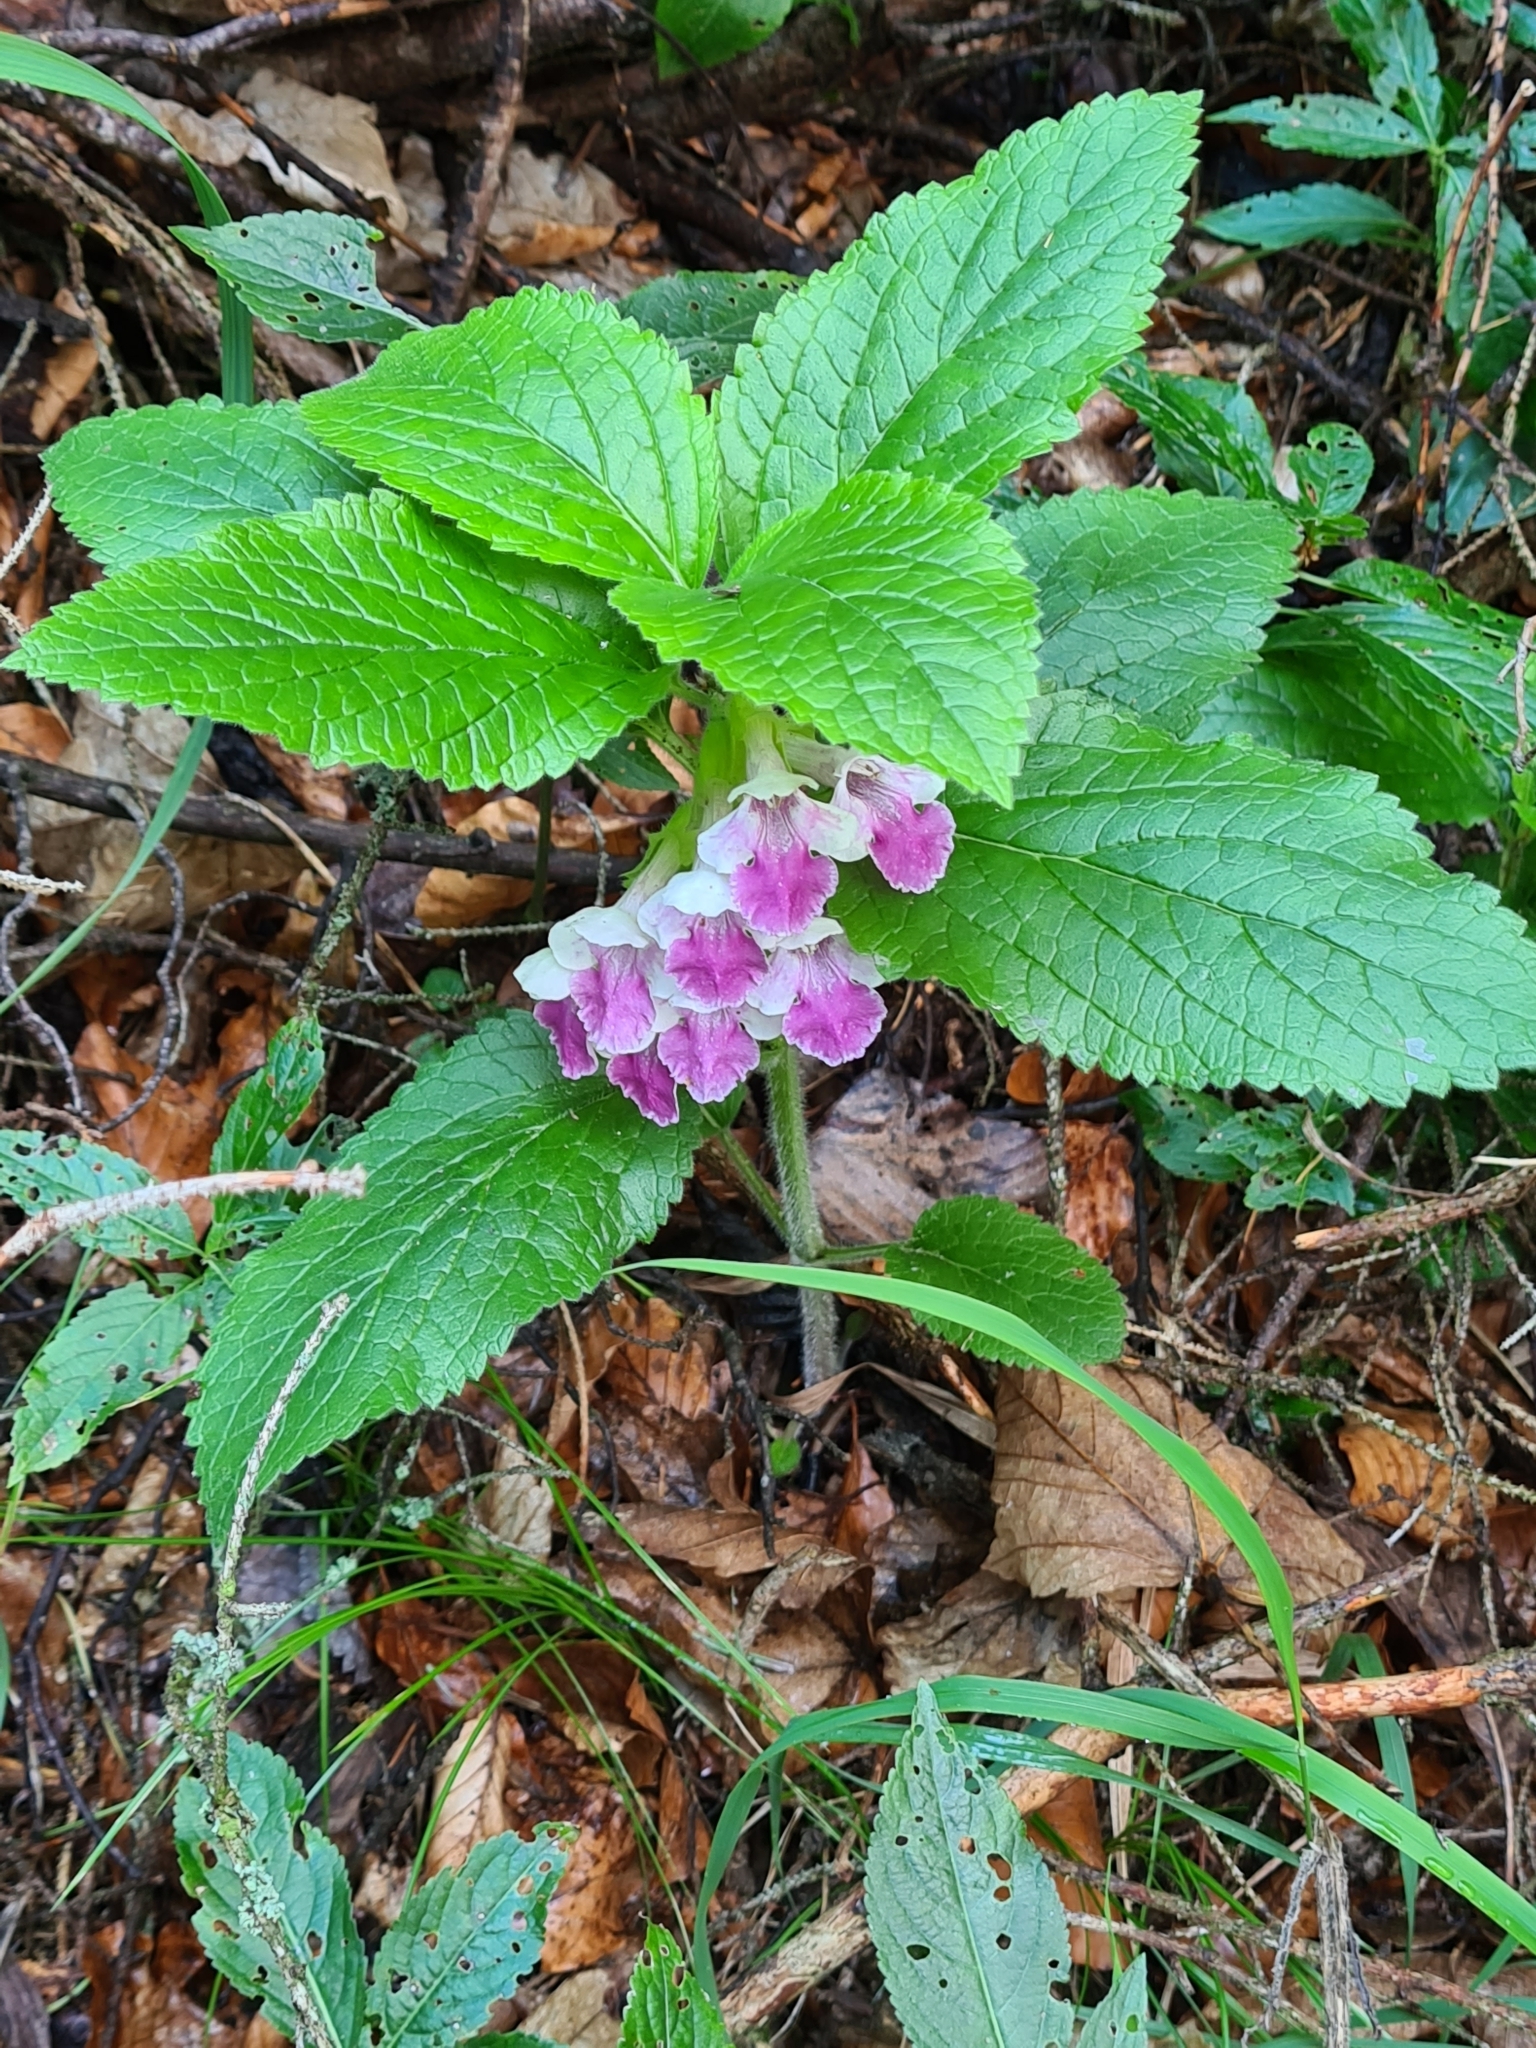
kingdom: Plantae
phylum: Tracheophyta
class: Magnoliopsida
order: Lamiales
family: Lamiaceae
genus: Melittis
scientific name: Melittis melissophyllum
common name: Bastard balm
